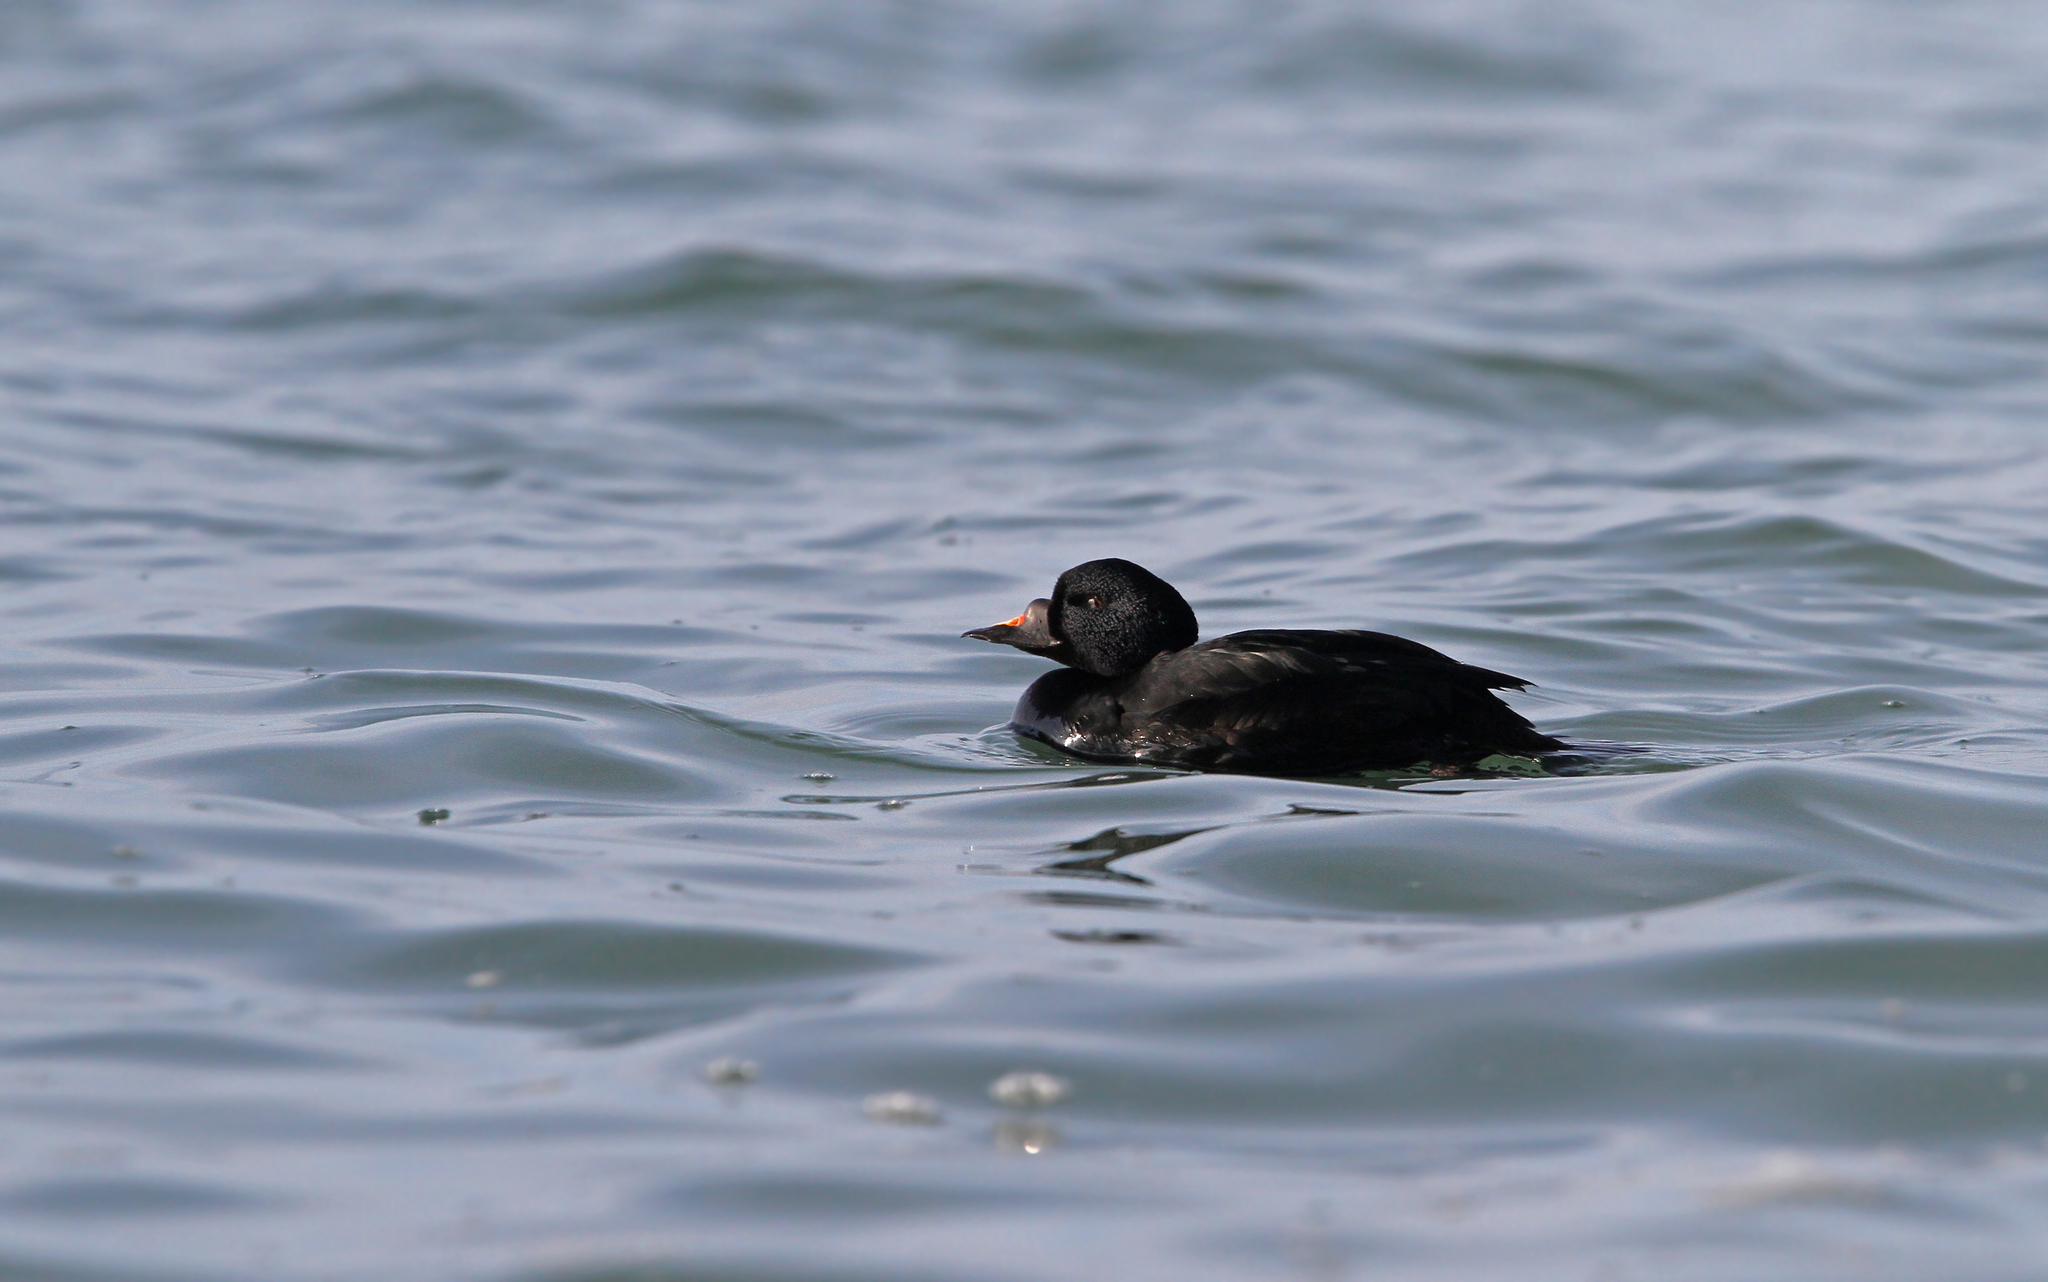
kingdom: Animalia
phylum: Chordata
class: Aves
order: Anseriformes
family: Anatidae
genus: Melanitta
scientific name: Melanitta nigra
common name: Common scoter
